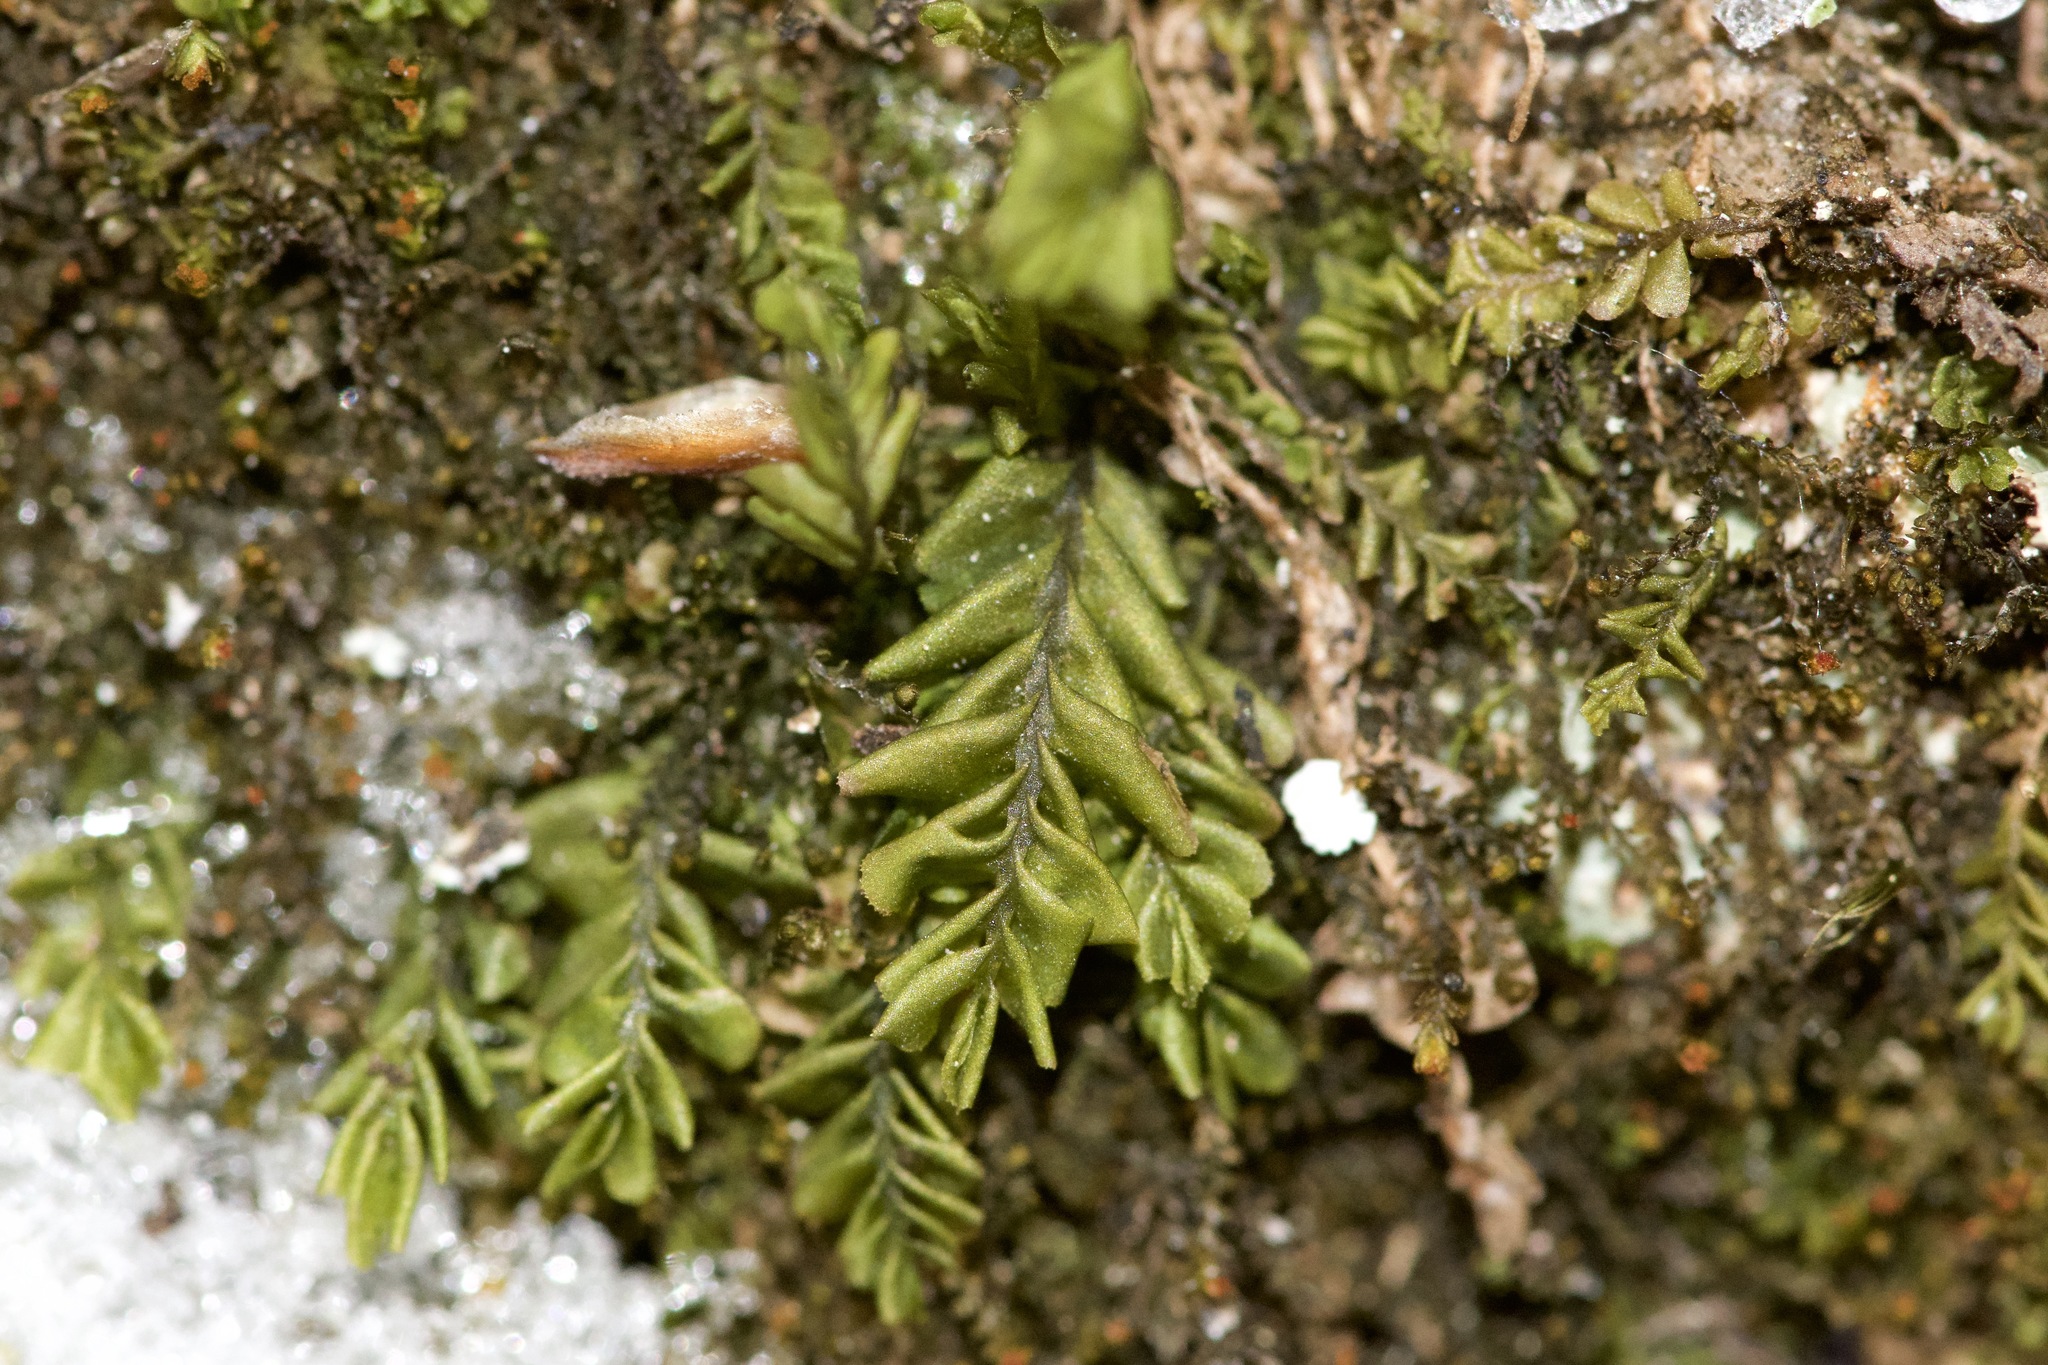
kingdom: Plantae
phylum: Marchantiophyta
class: Jungermanniopsida
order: Jungermanniales
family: Plagiochilaceae
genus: Plagiochila
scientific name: Plagiochila porelloides
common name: Lesser featherwort
